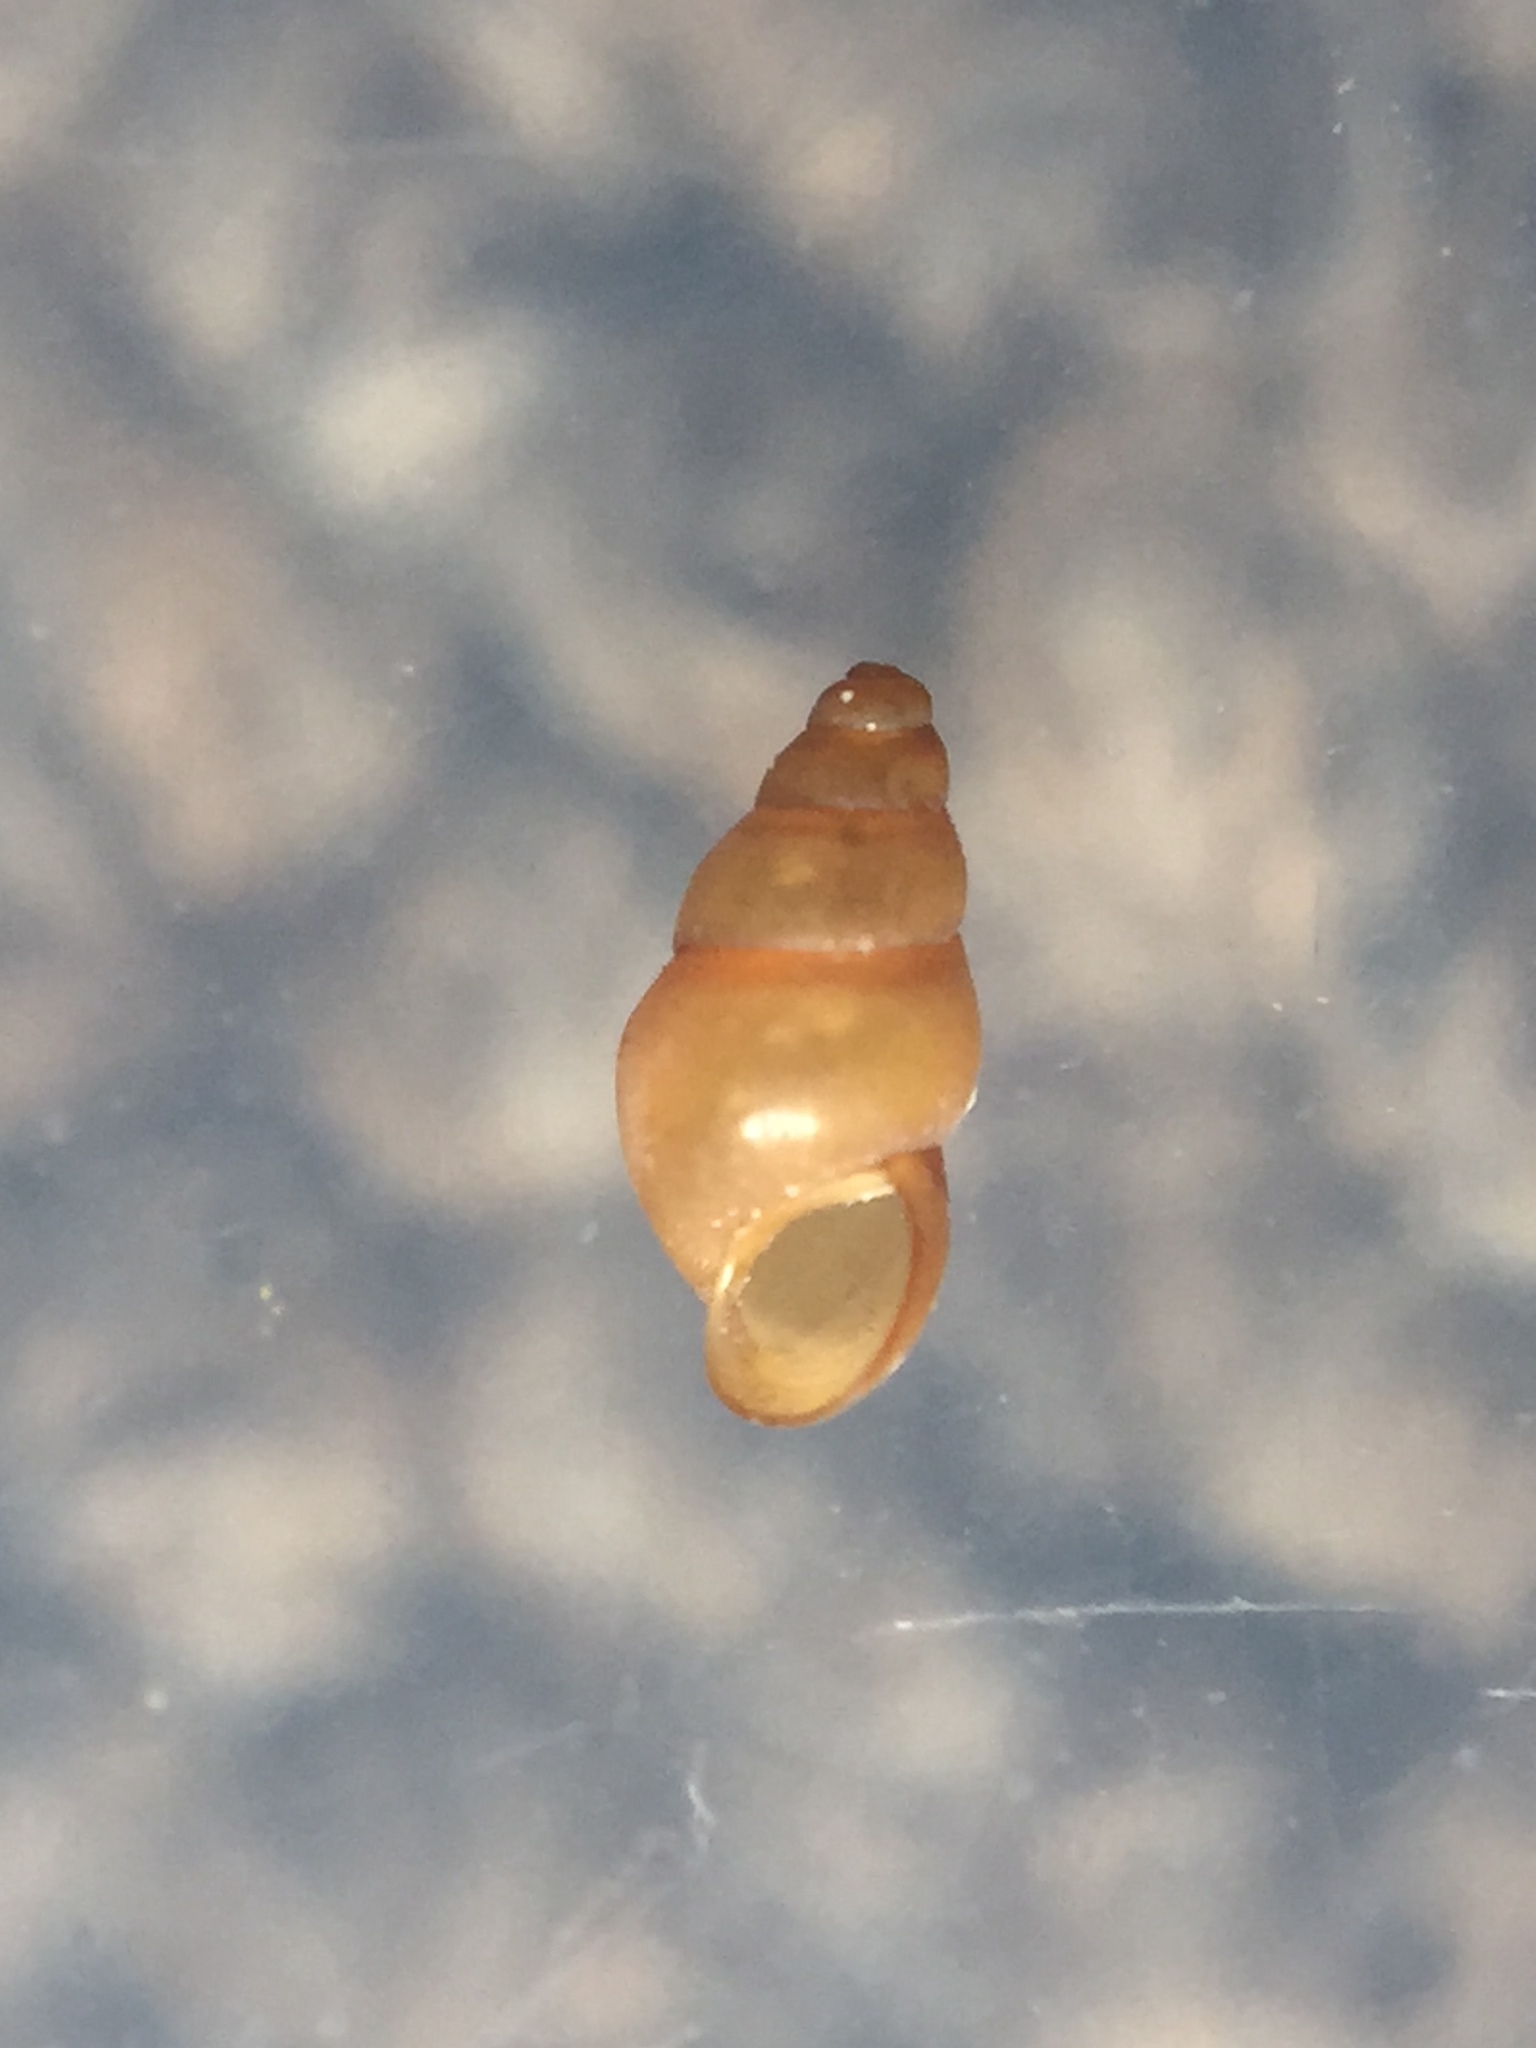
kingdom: Animalia
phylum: Mollusca
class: Gastropoda
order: Littorinimorpha
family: Tateidae
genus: Halopyrgus
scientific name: Halopyrgus pupoides
